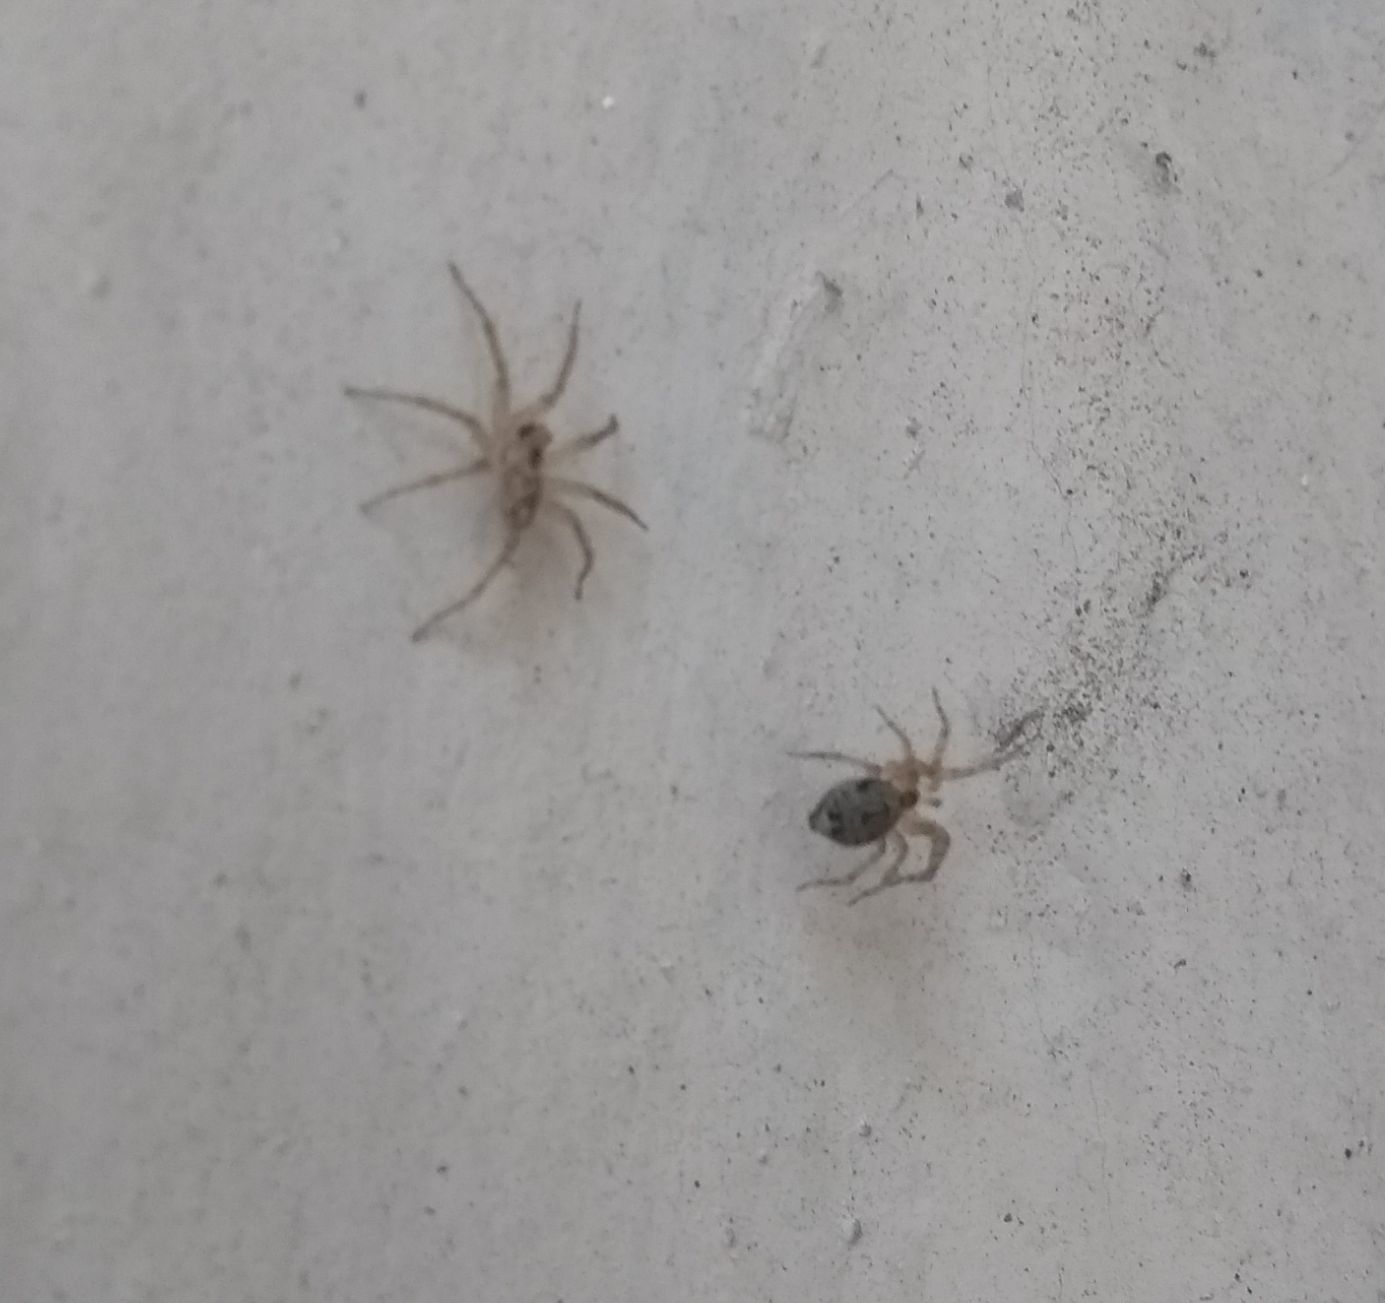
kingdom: Animalia
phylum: Arthropoda
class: Arachnida
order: Araneae
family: Oecobiidae
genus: Oecobius
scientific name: Oecobius navus
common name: Flatmesh weaver
